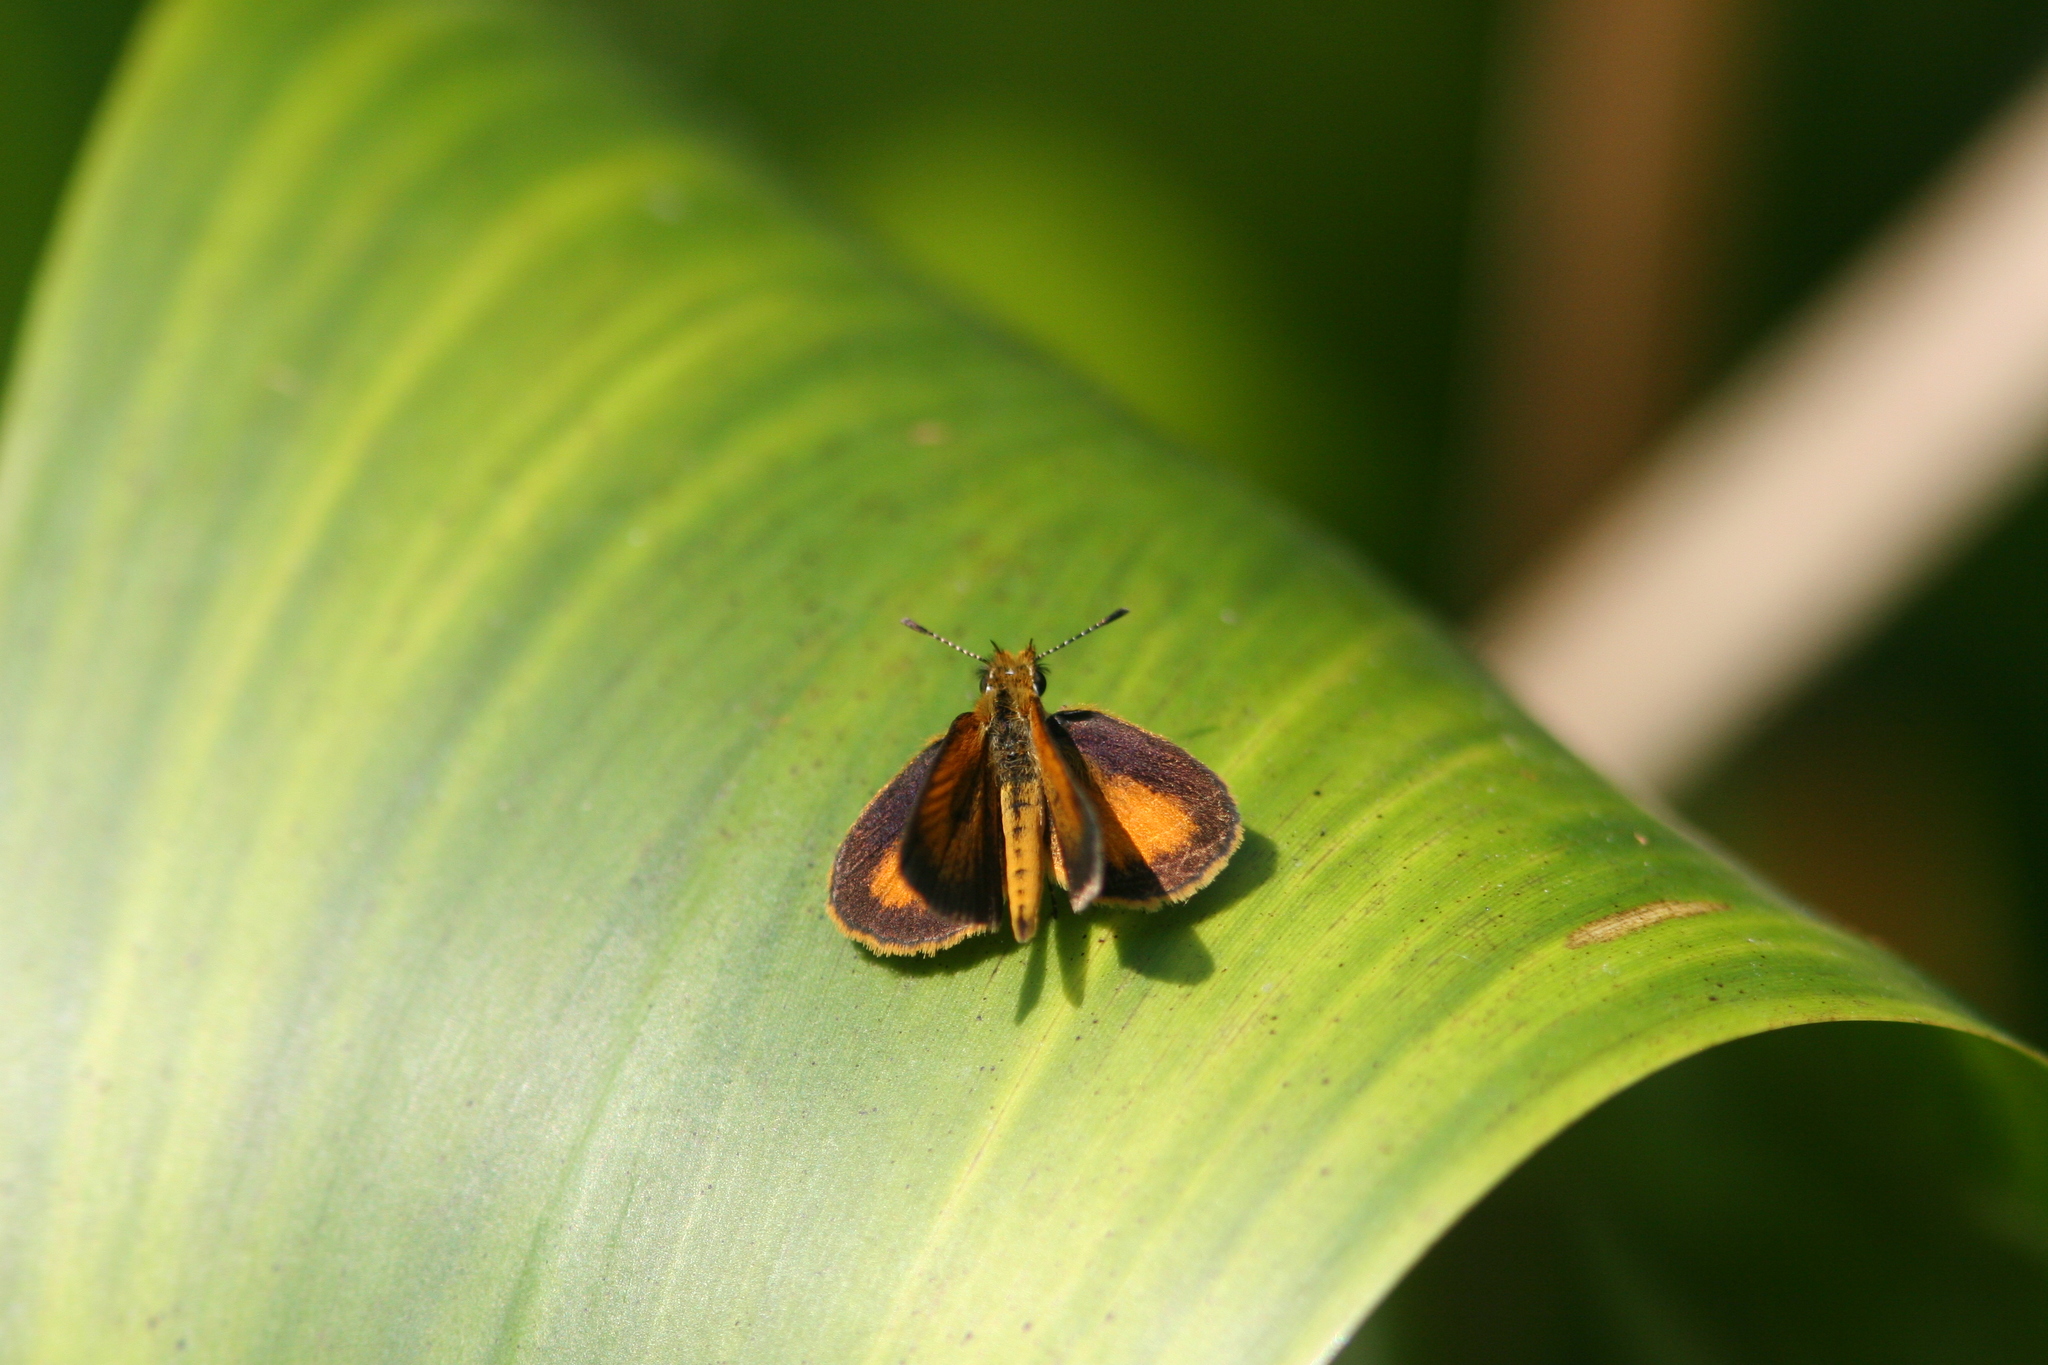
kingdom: Animalia
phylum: Arthropoda
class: Insecta
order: Lepidoptera
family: Hesperiidae
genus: Ancyloxypha
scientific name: Ancyloxypha numitor
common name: Least skipper
